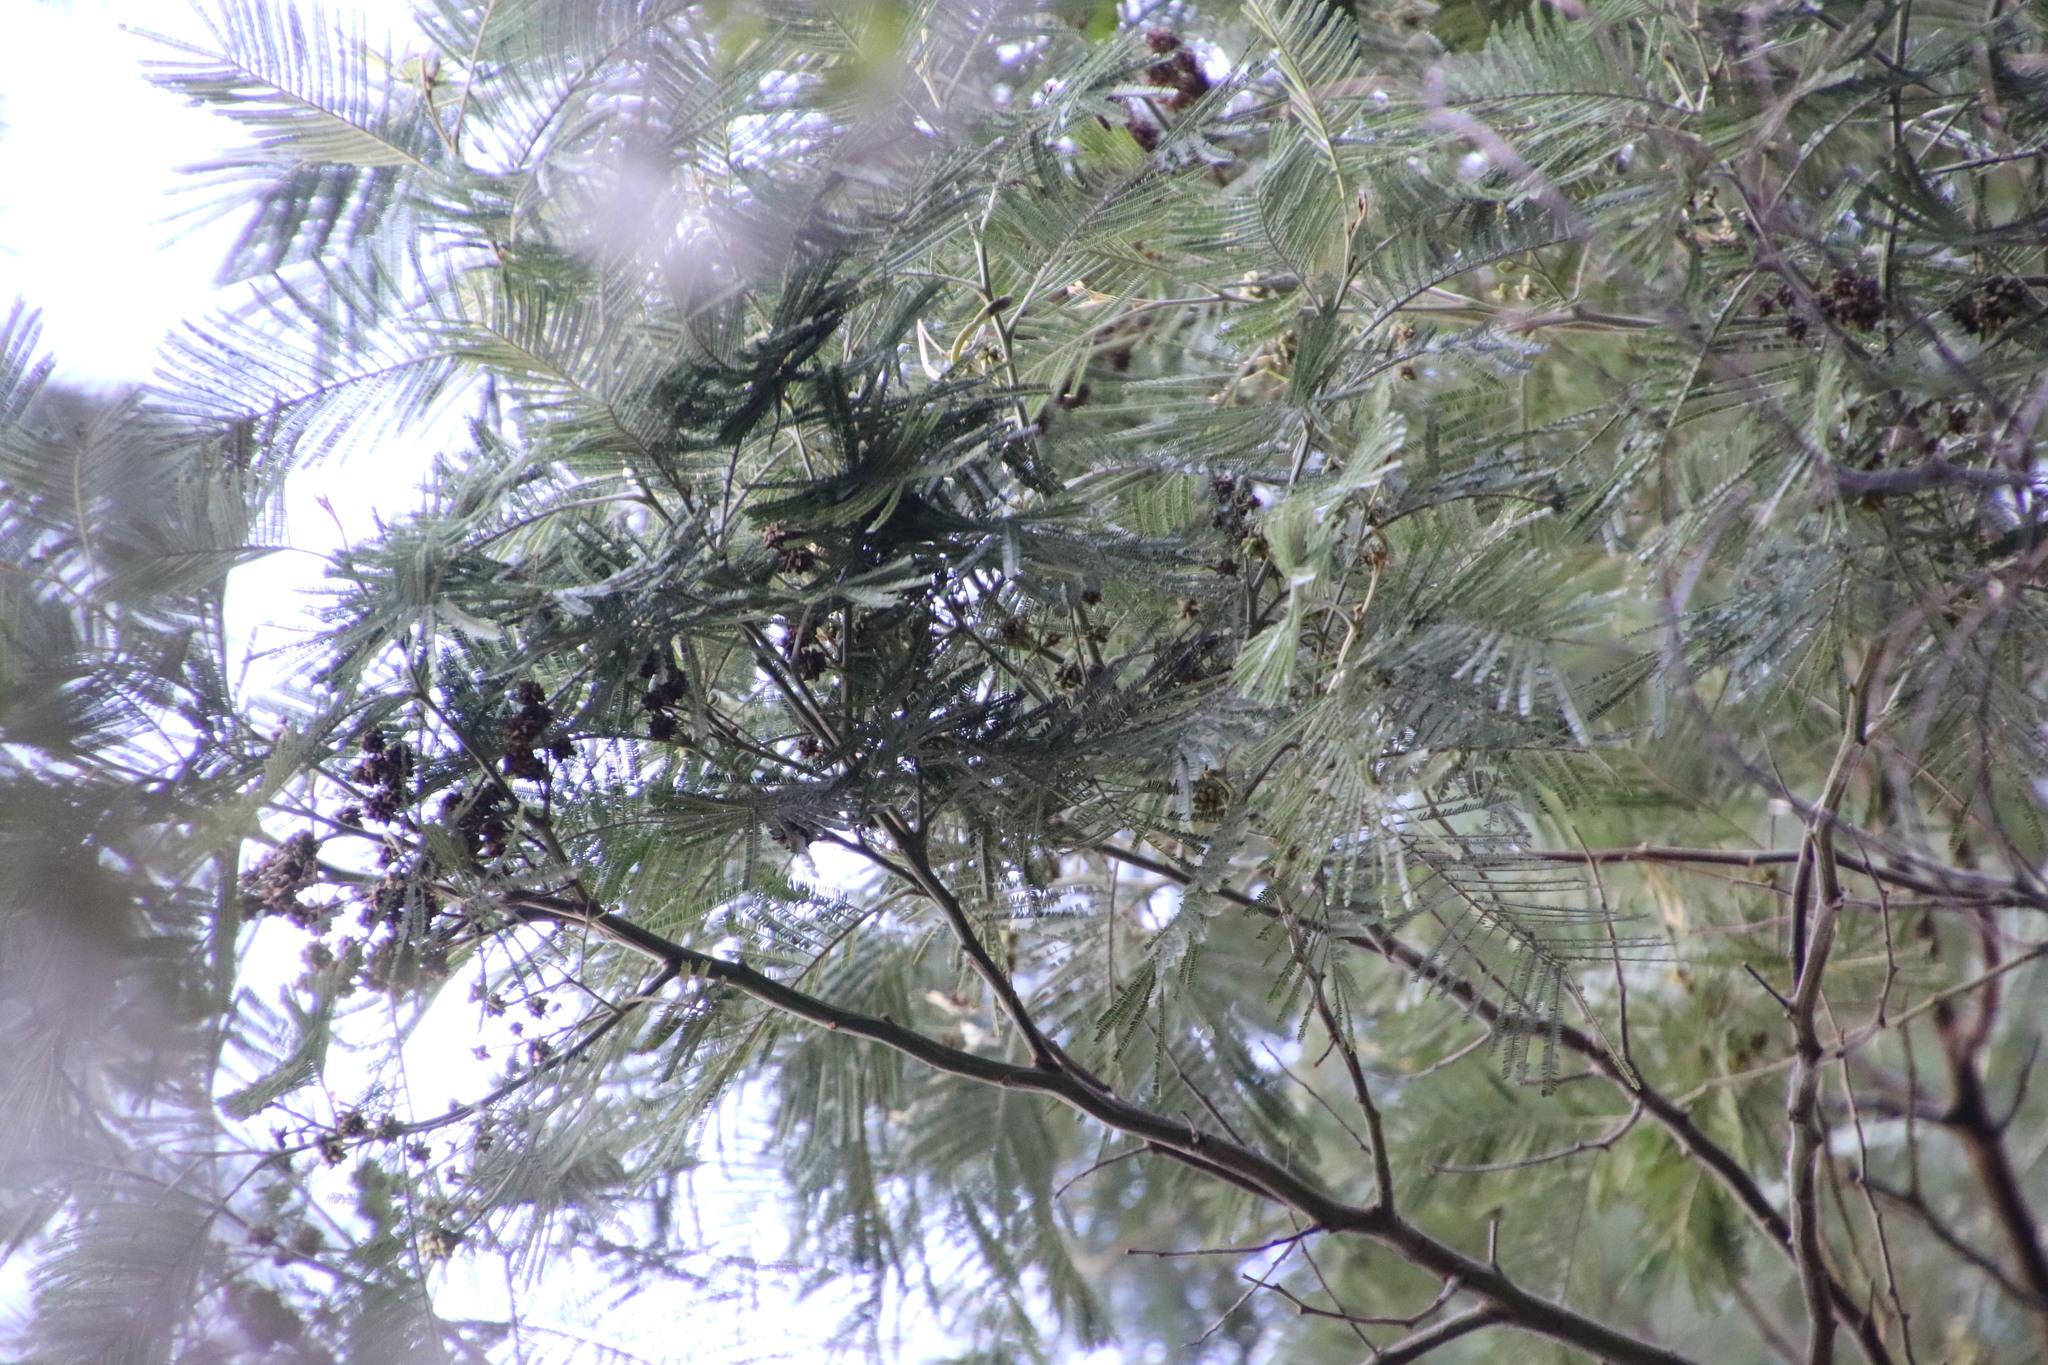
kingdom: Animalia
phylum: Arthropoda
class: Insecta
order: Diptera
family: Cecidomyiidae
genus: Dasineura
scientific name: Dasineura rubiformis
